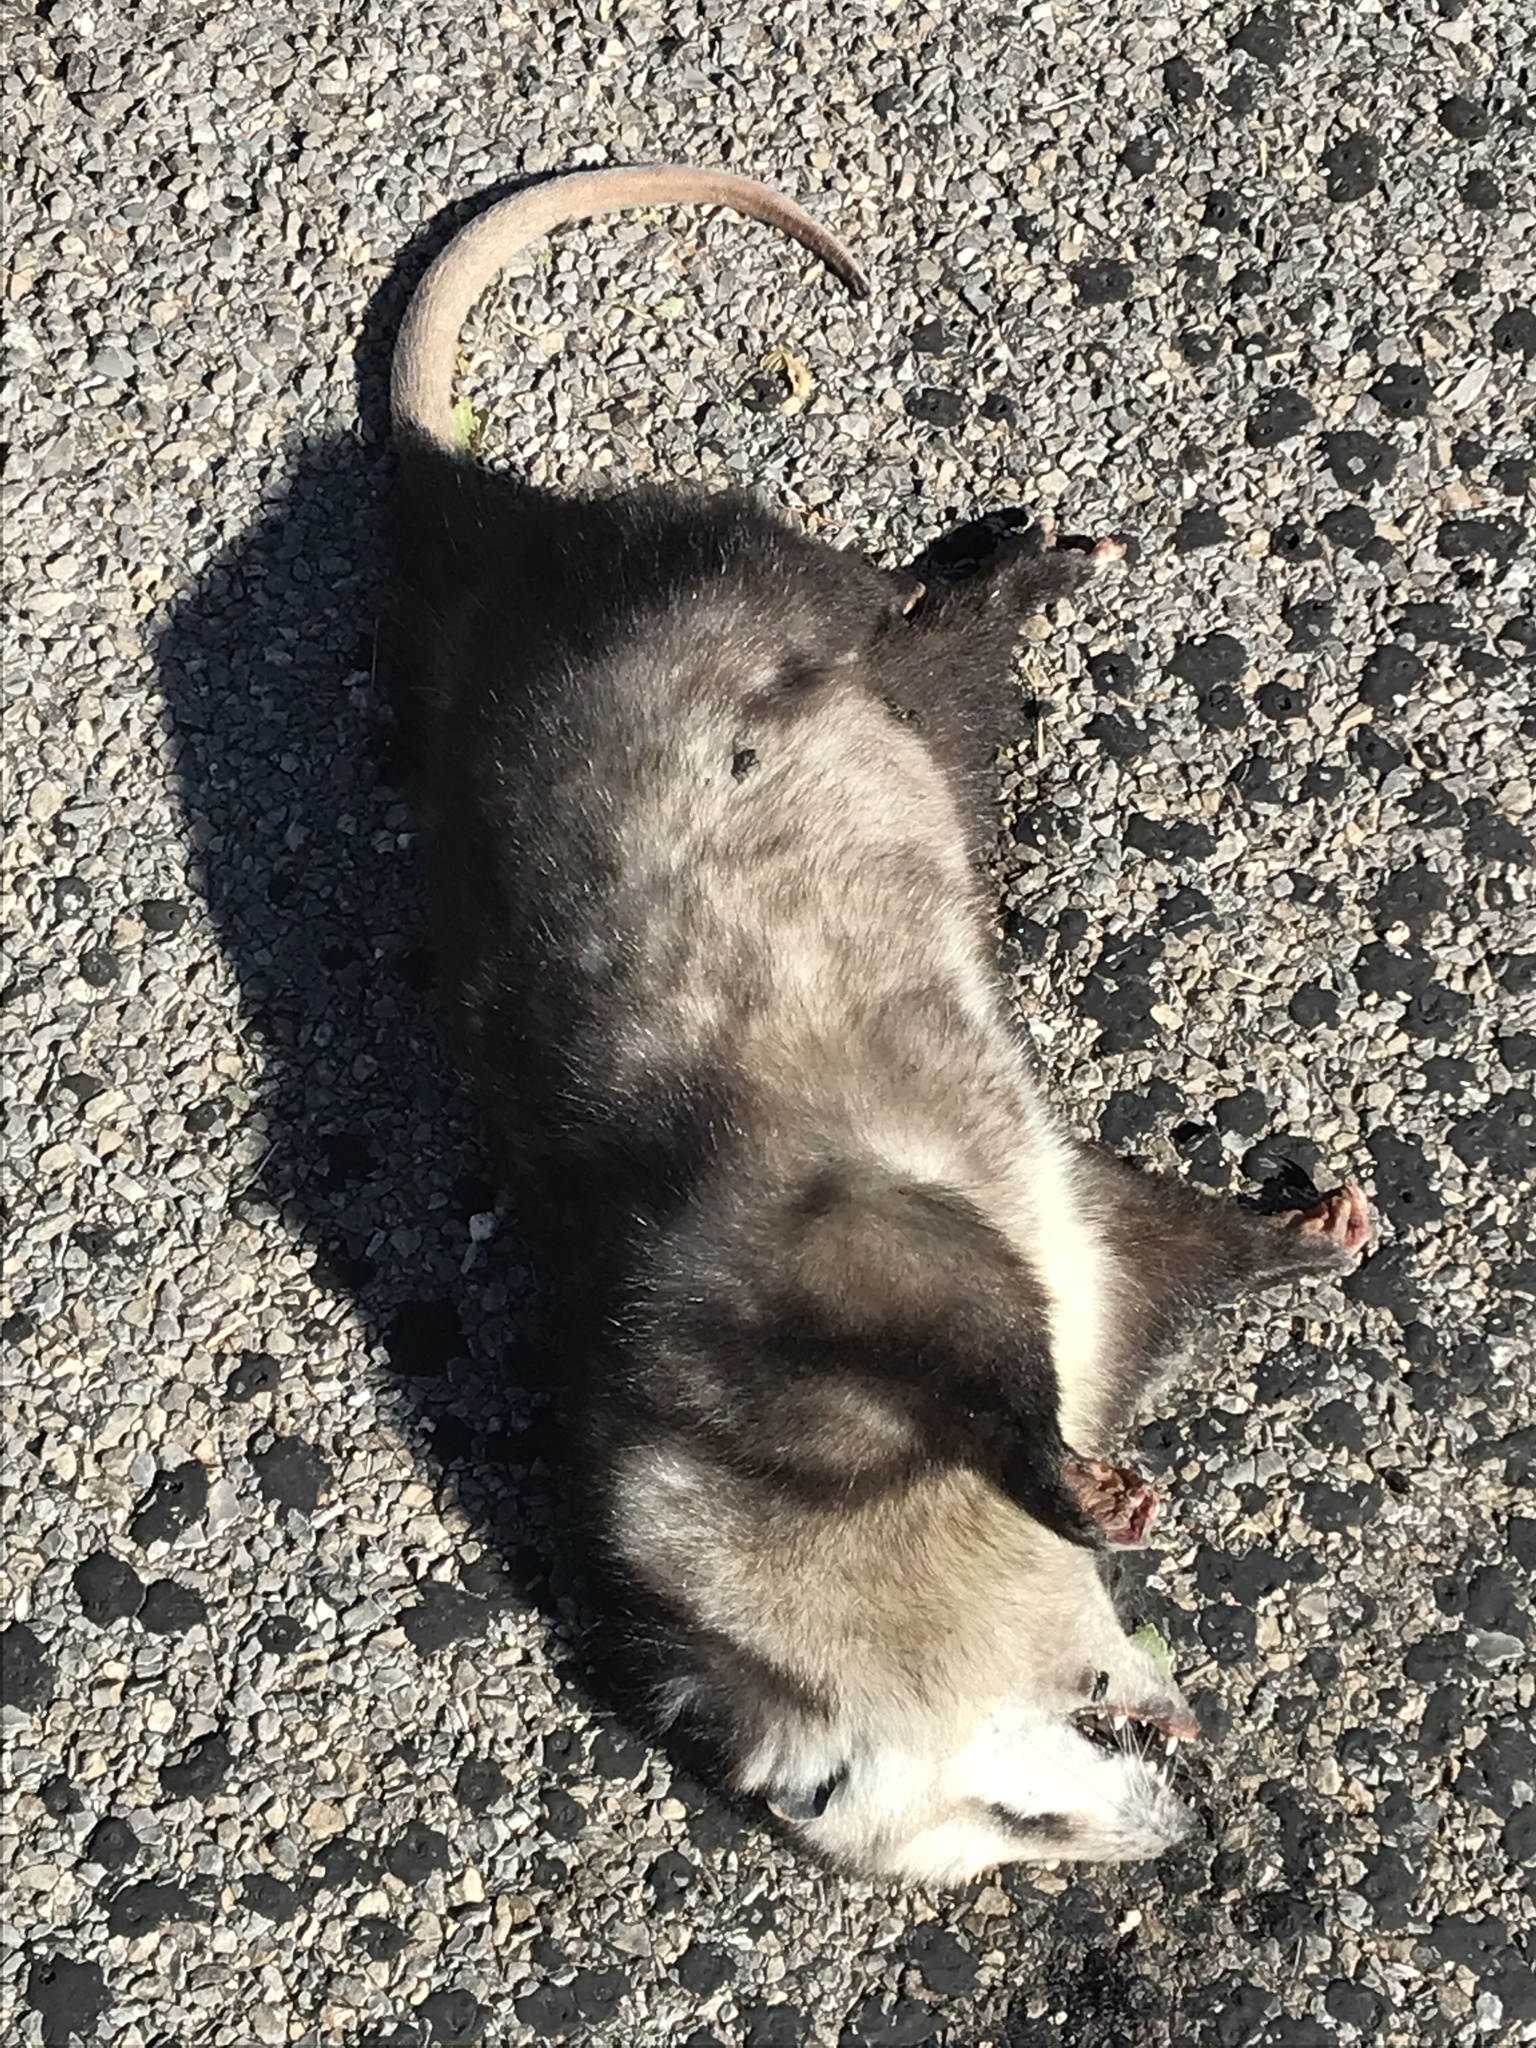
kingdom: Animalia
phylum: Chordata
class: Mammalia
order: Didelphimorphia
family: Didelphidae
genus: Didelphis
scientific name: Didelphis virginiana
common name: Virginia opossum
